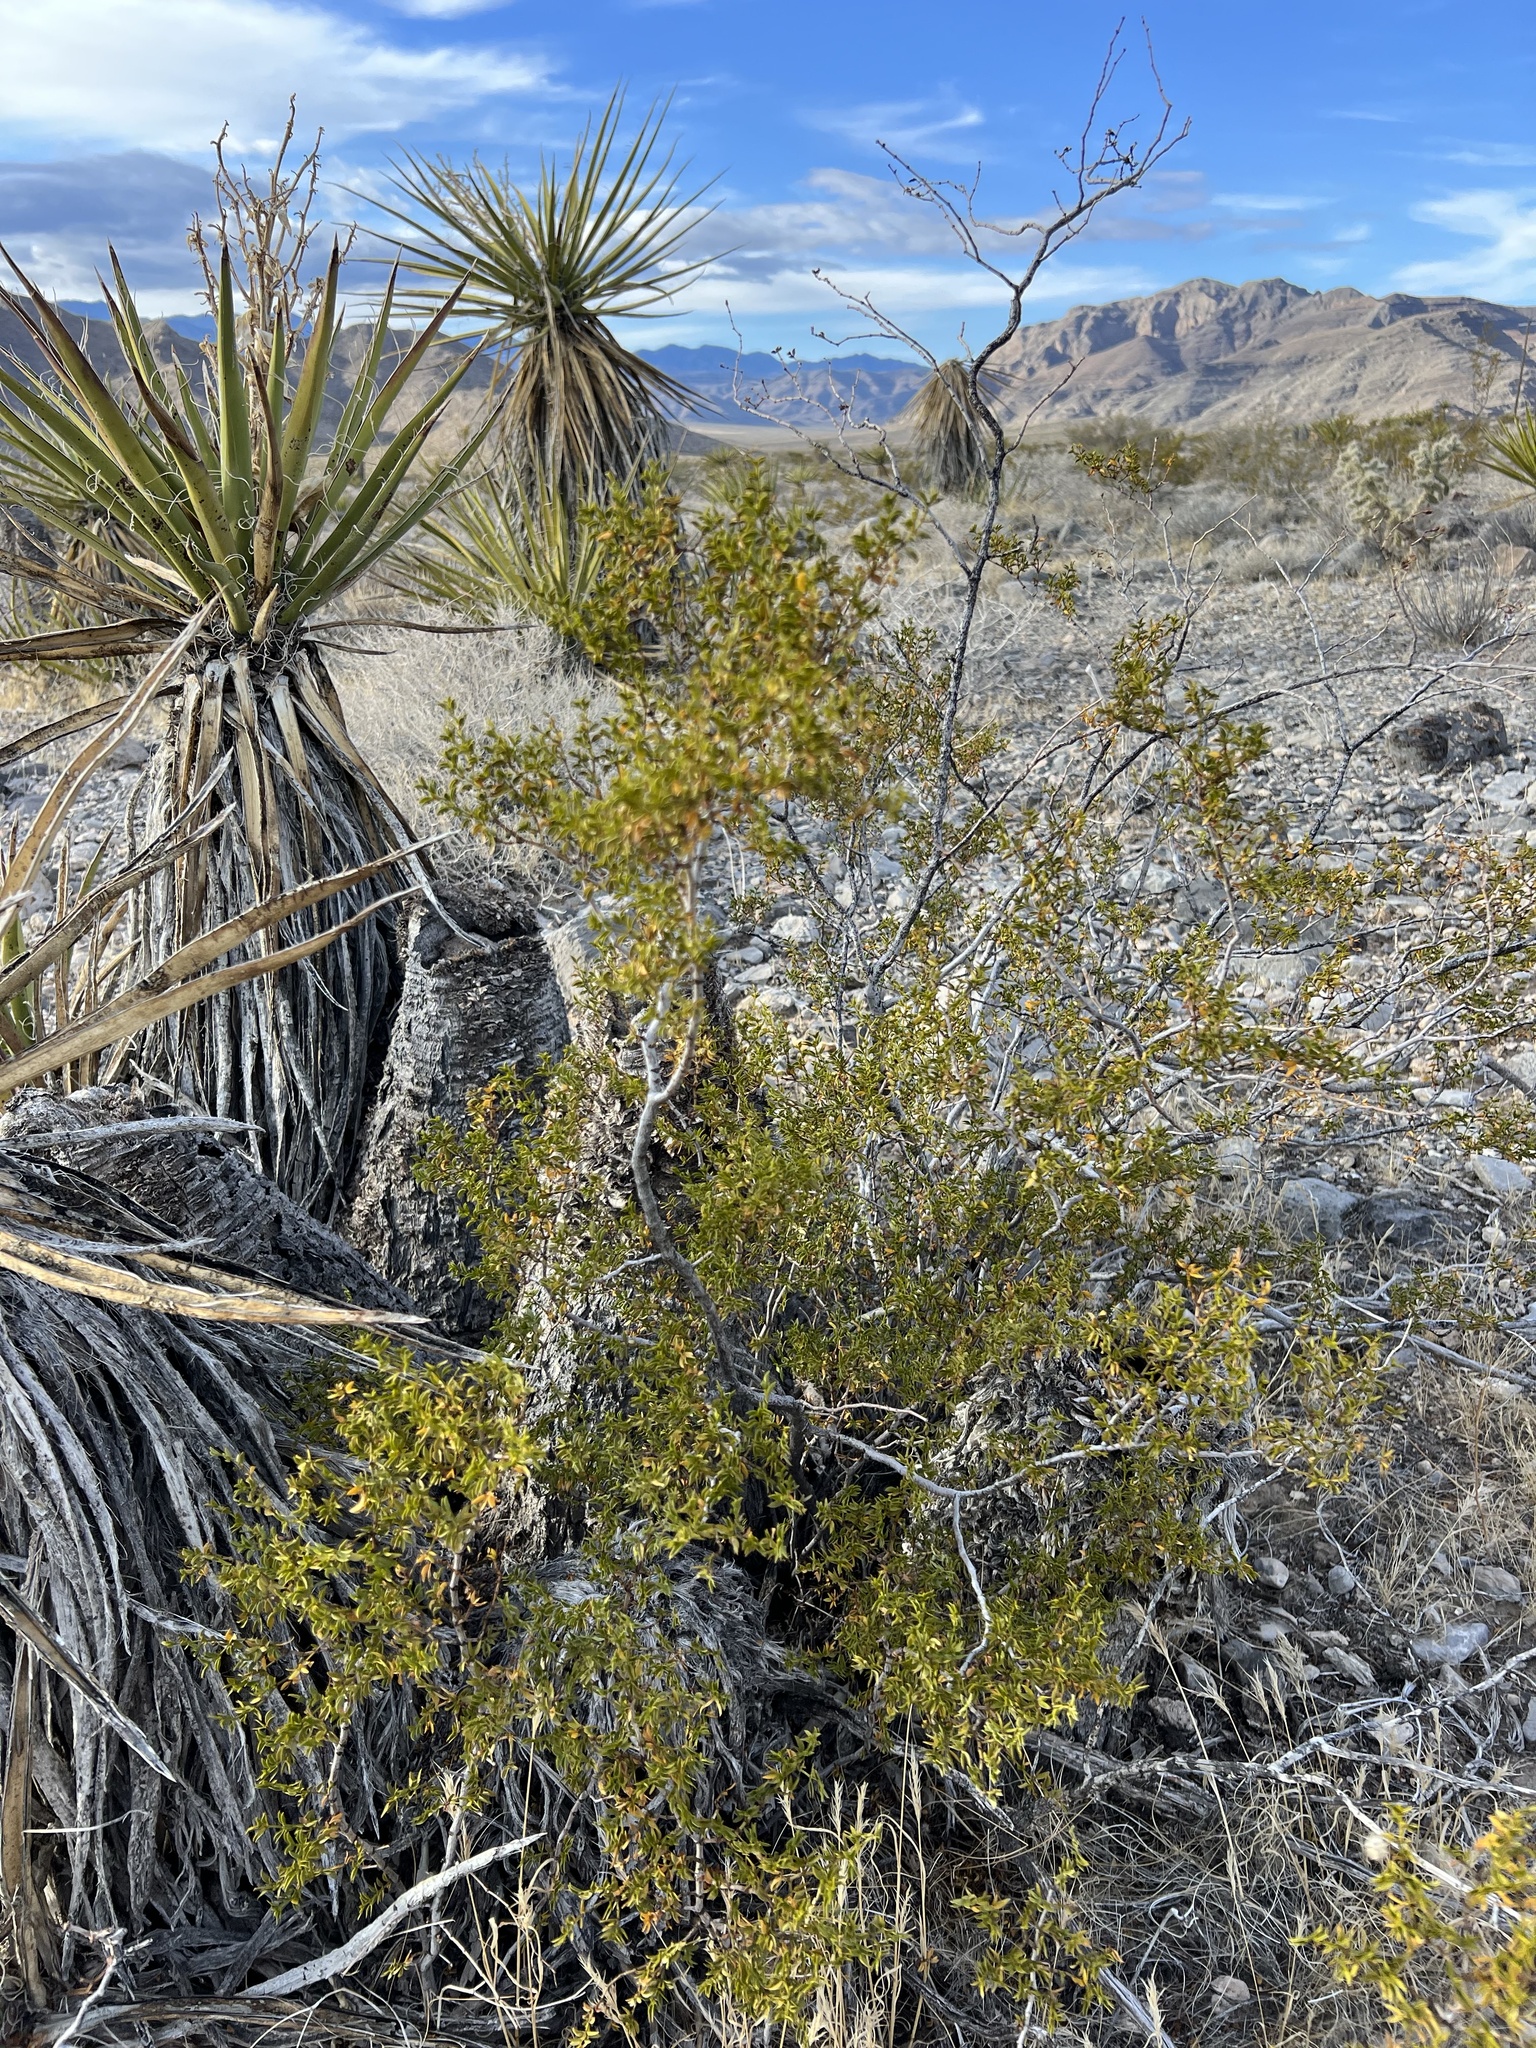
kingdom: Plantae
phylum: Tracheophyta
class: Magnoliopsida
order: Zygophyllales
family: Zygophyllaceae
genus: Larrea
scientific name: Larrea tridentata
